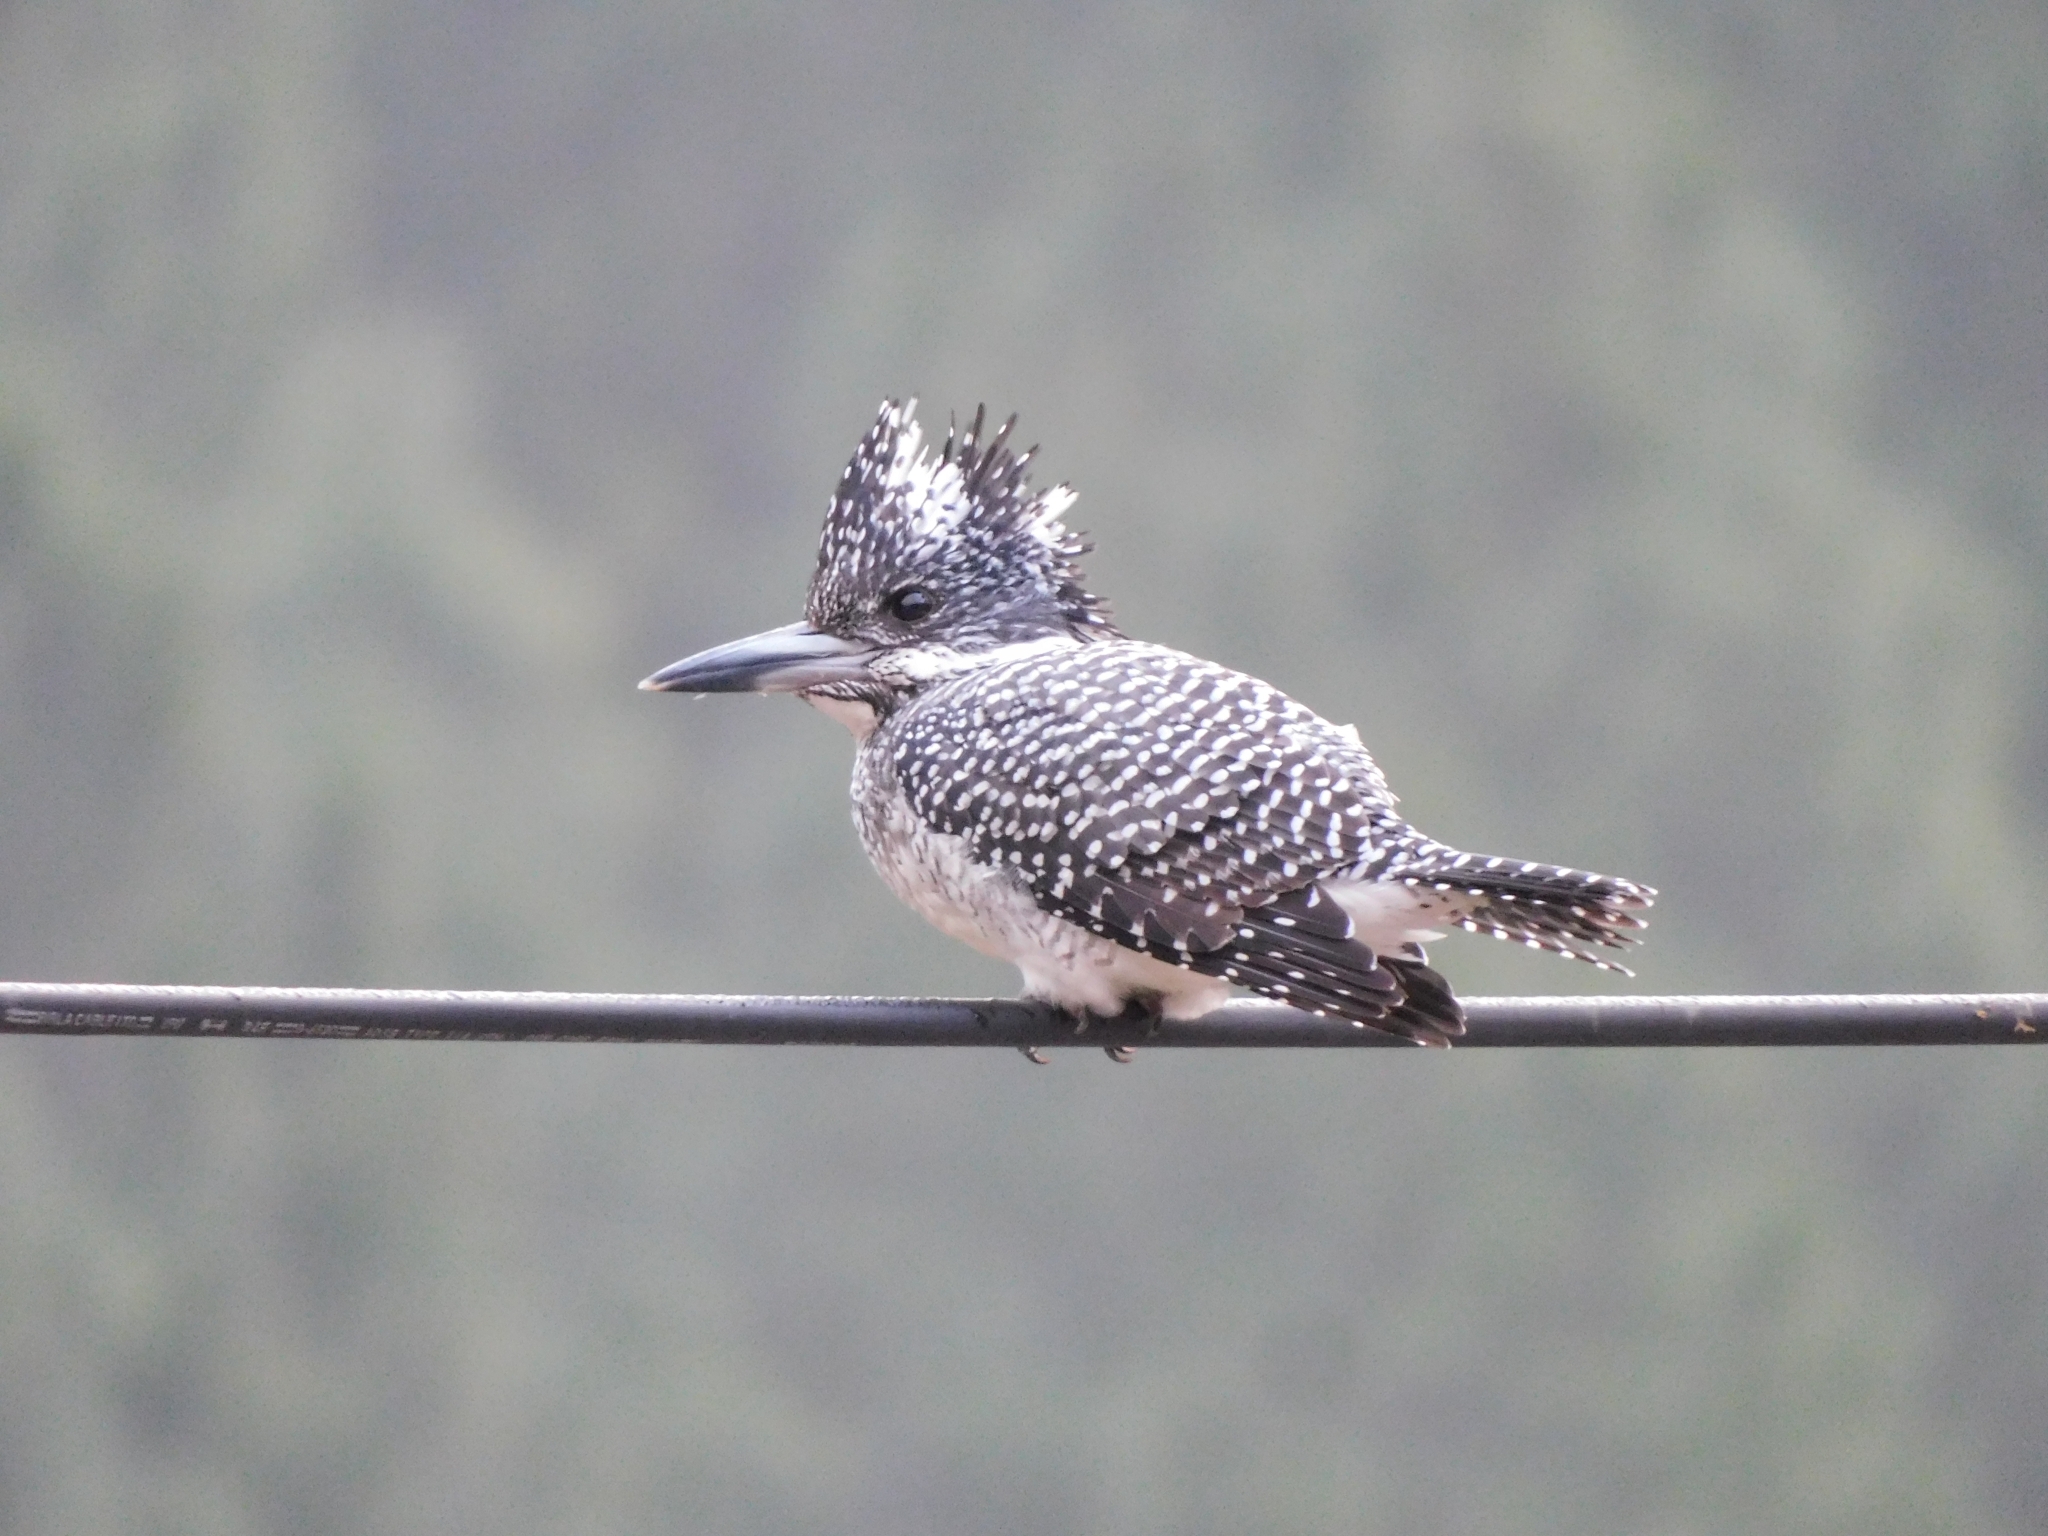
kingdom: Animalia
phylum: Chordata
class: Aves
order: Coraciiformes
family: Alcedinidae
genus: Megaceryle
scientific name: Megaceryle lugubris
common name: Crested kingfisher
